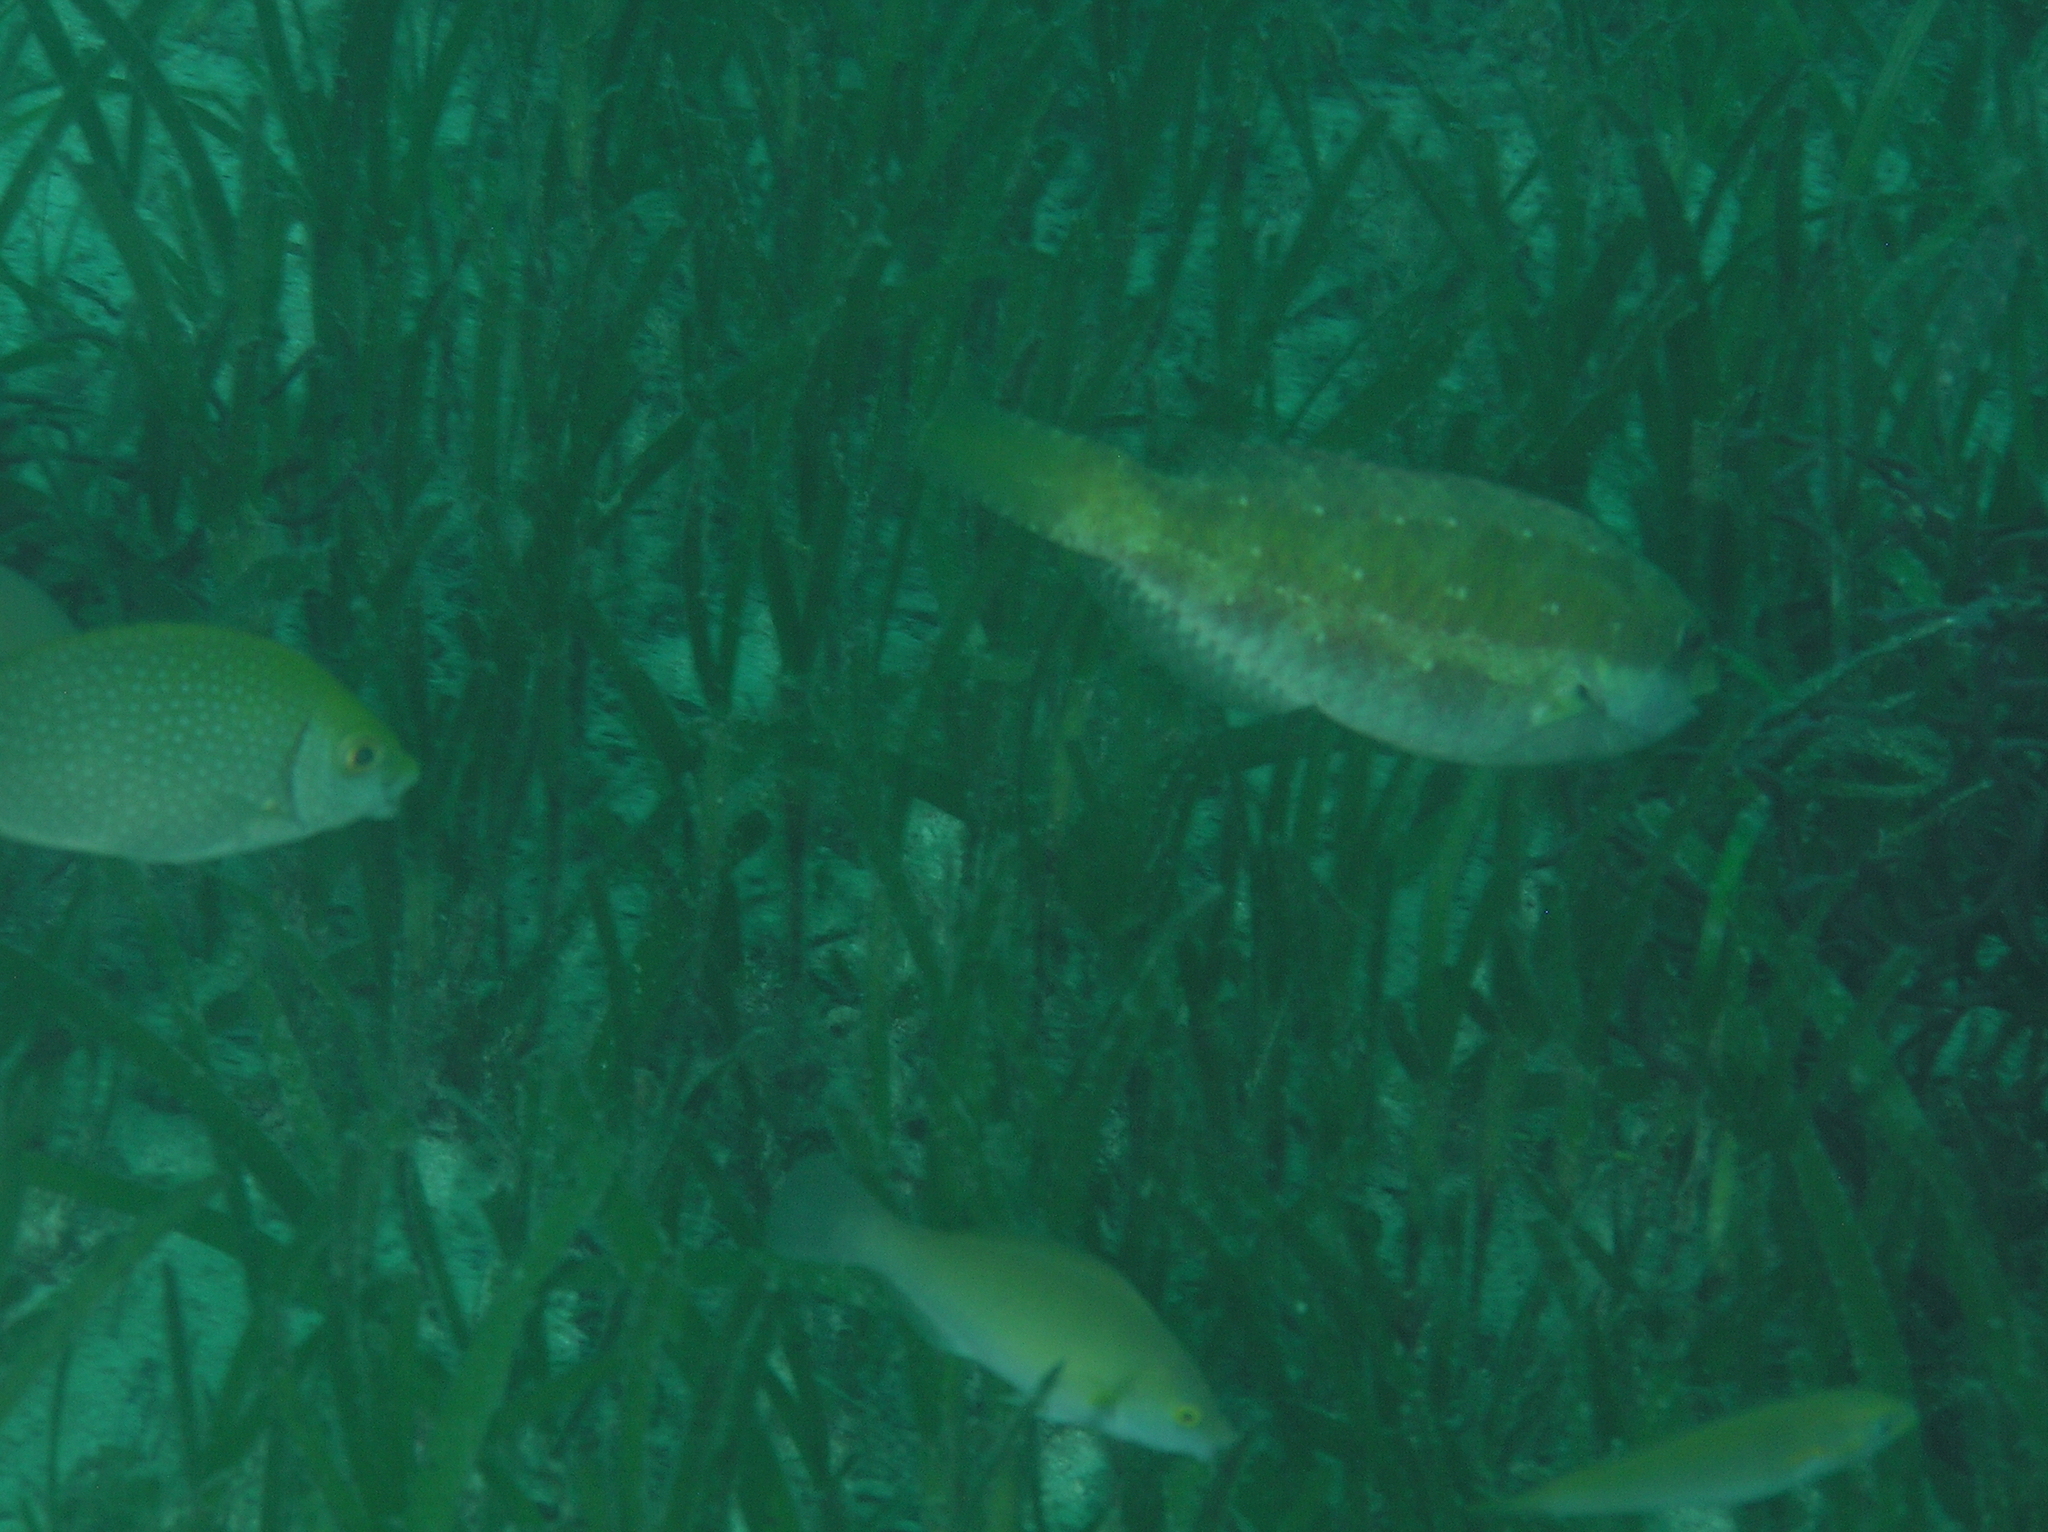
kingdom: Animalia
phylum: Chordata
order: Perciformes
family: Scaridae
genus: Leptoscarus
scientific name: Leptoscarus vaigiensis
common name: Marbled parrotfish
